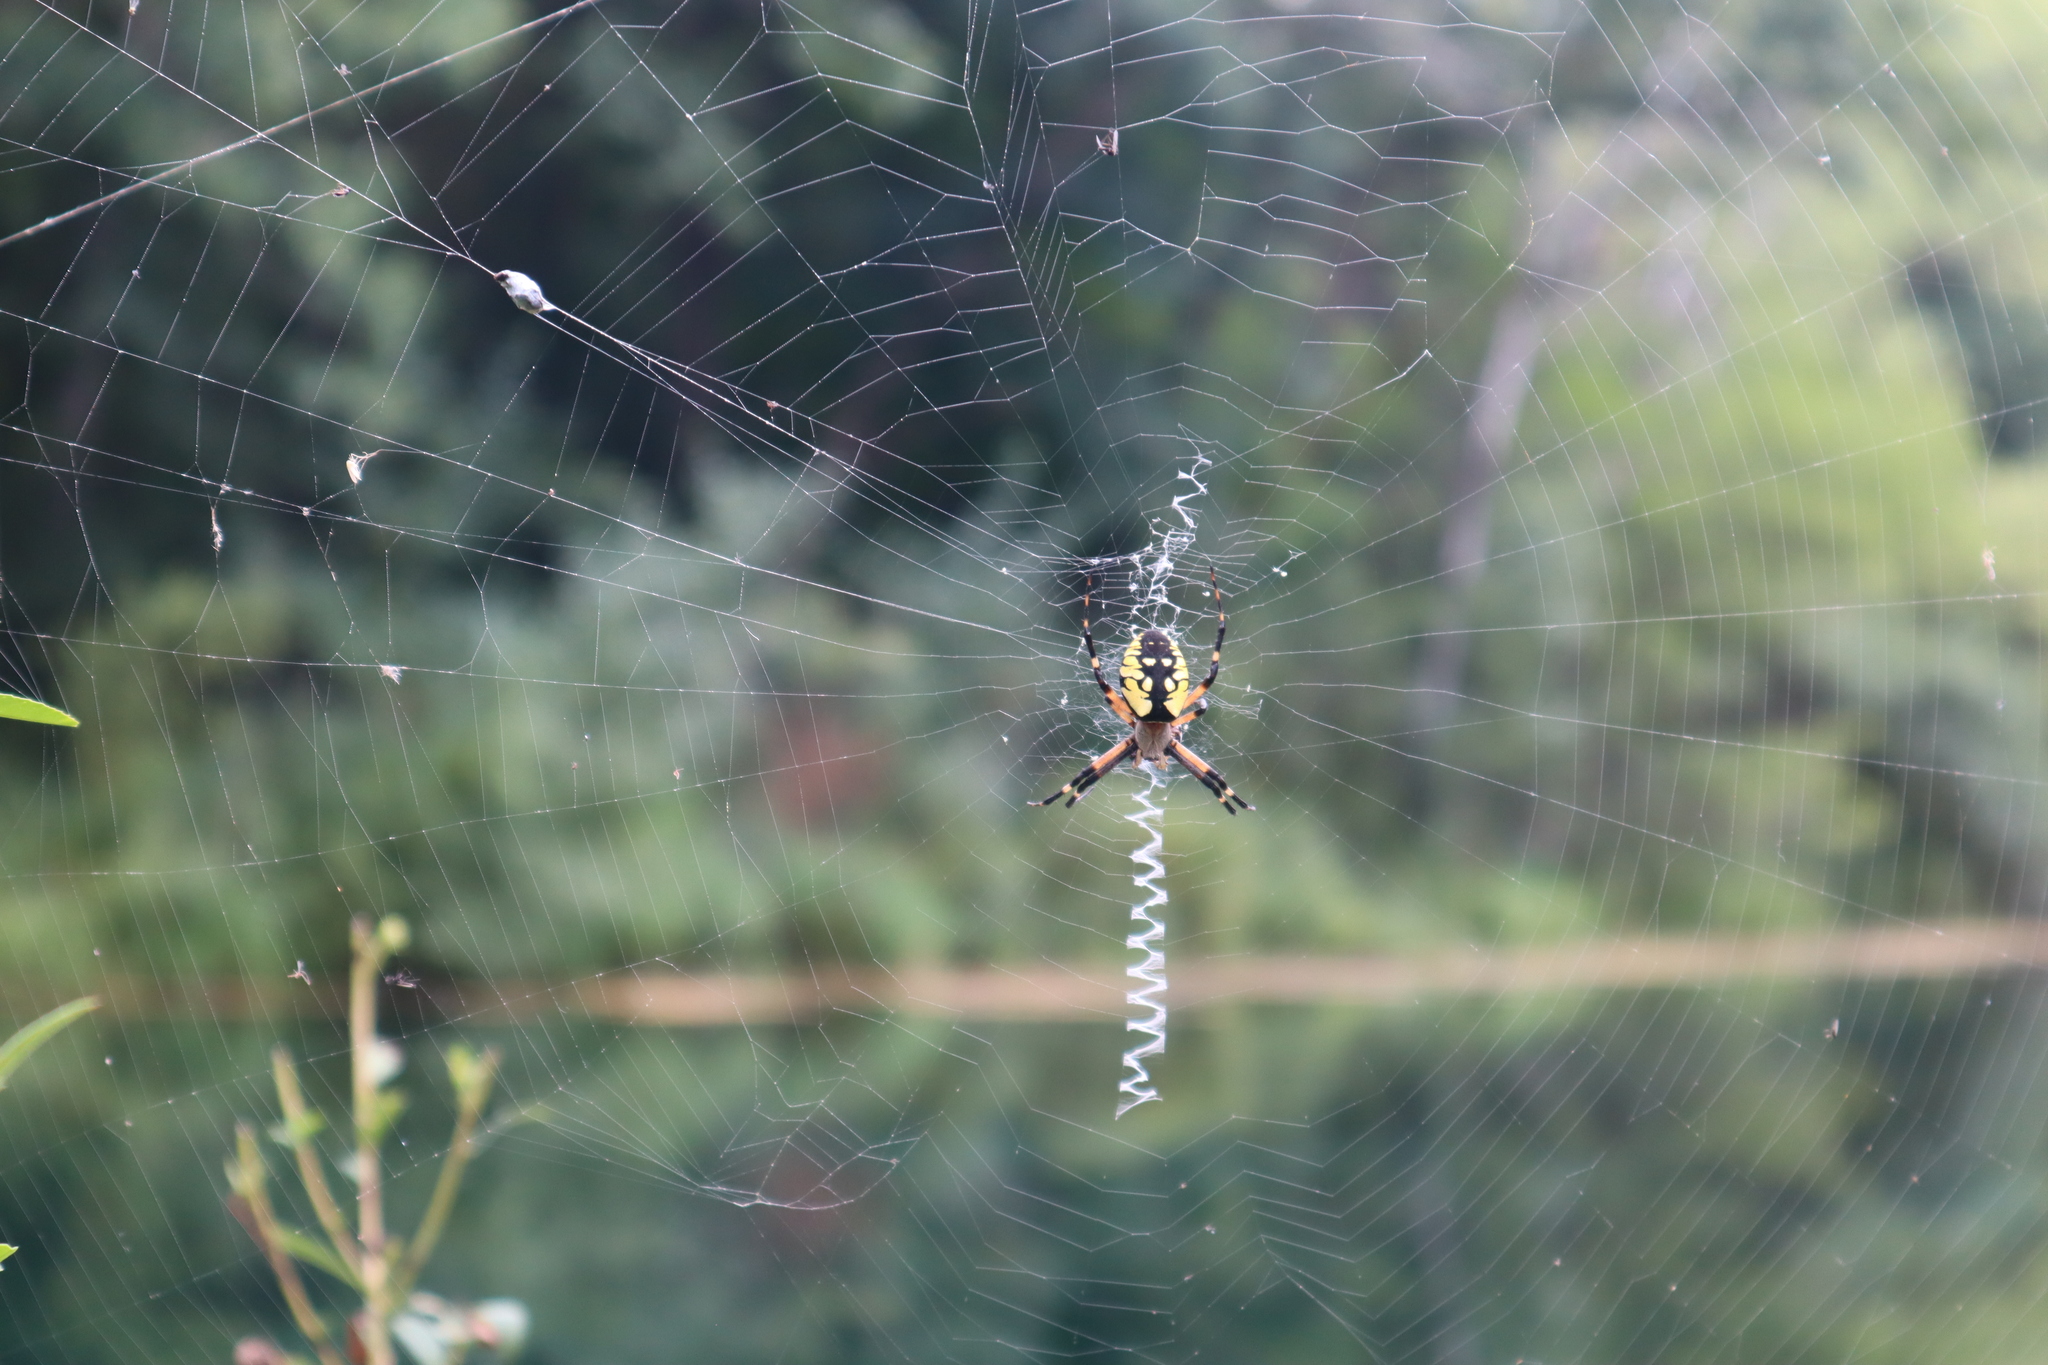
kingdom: Animalia
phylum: Arthropoda
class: Arachnida
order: Araneae
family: Araneidae
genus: Argiope
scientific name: Argiope aurantia
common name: Orb weavers
